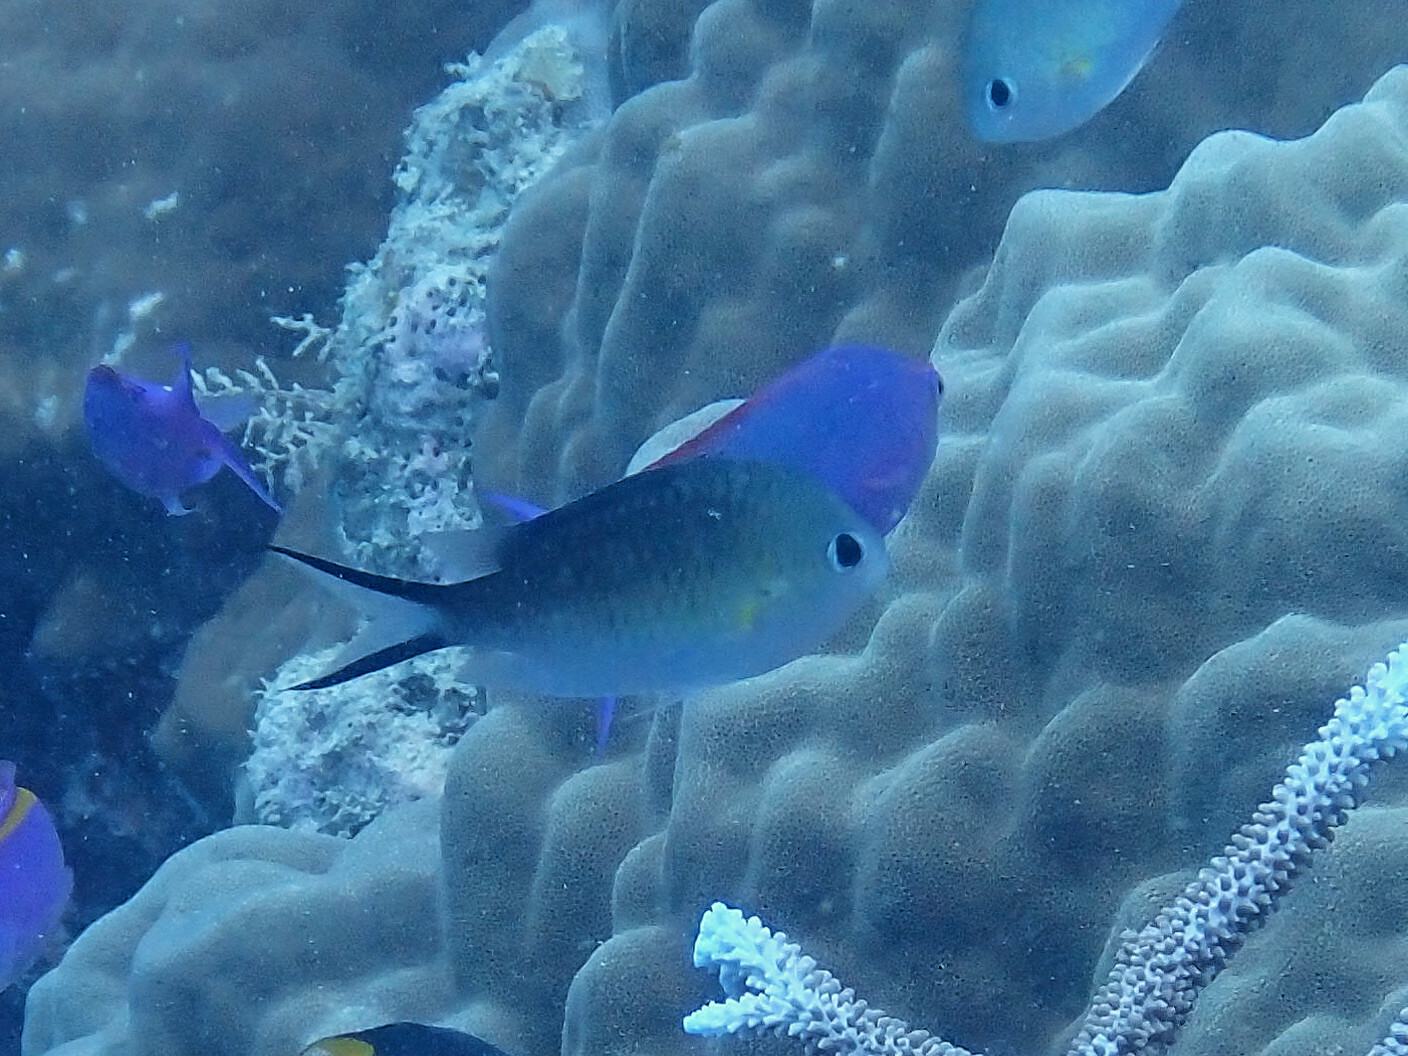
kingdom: Animalia
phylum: Chordata
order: Perciformes
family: Pomacentridae
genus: Chromis
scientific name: Chromis ternatensis
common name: Ternate chromis
